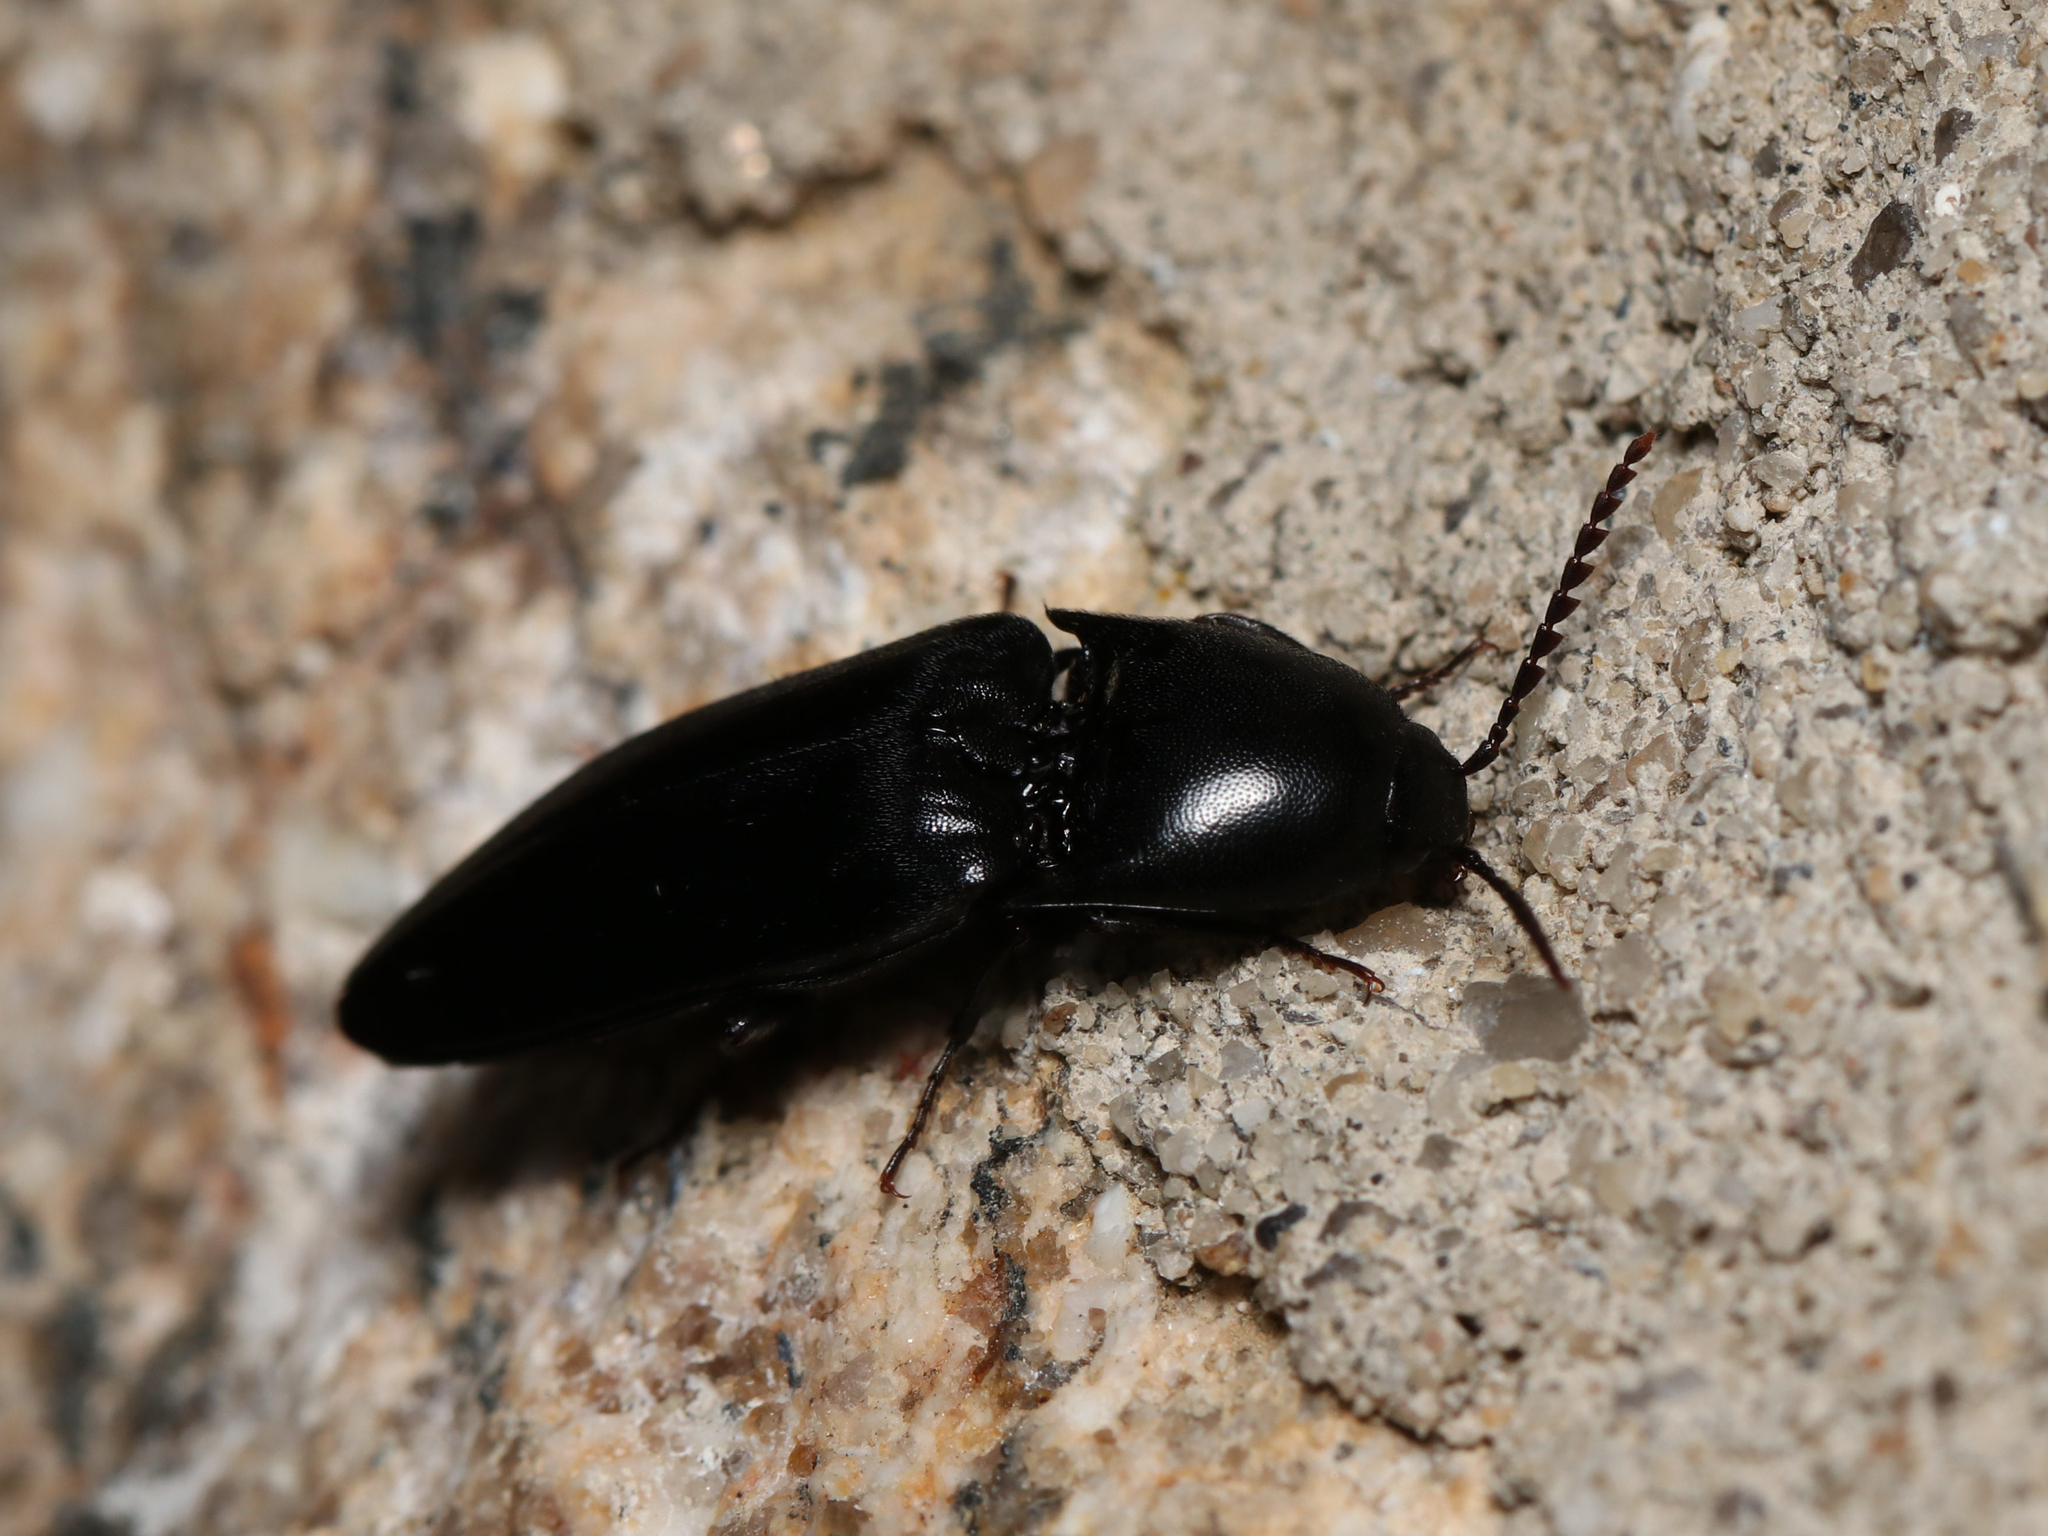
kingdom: Animalia
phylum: Arthropoda
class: Insecta
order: Coleoptera
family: Elateridae
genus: Elater
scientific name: Elater abruptus
